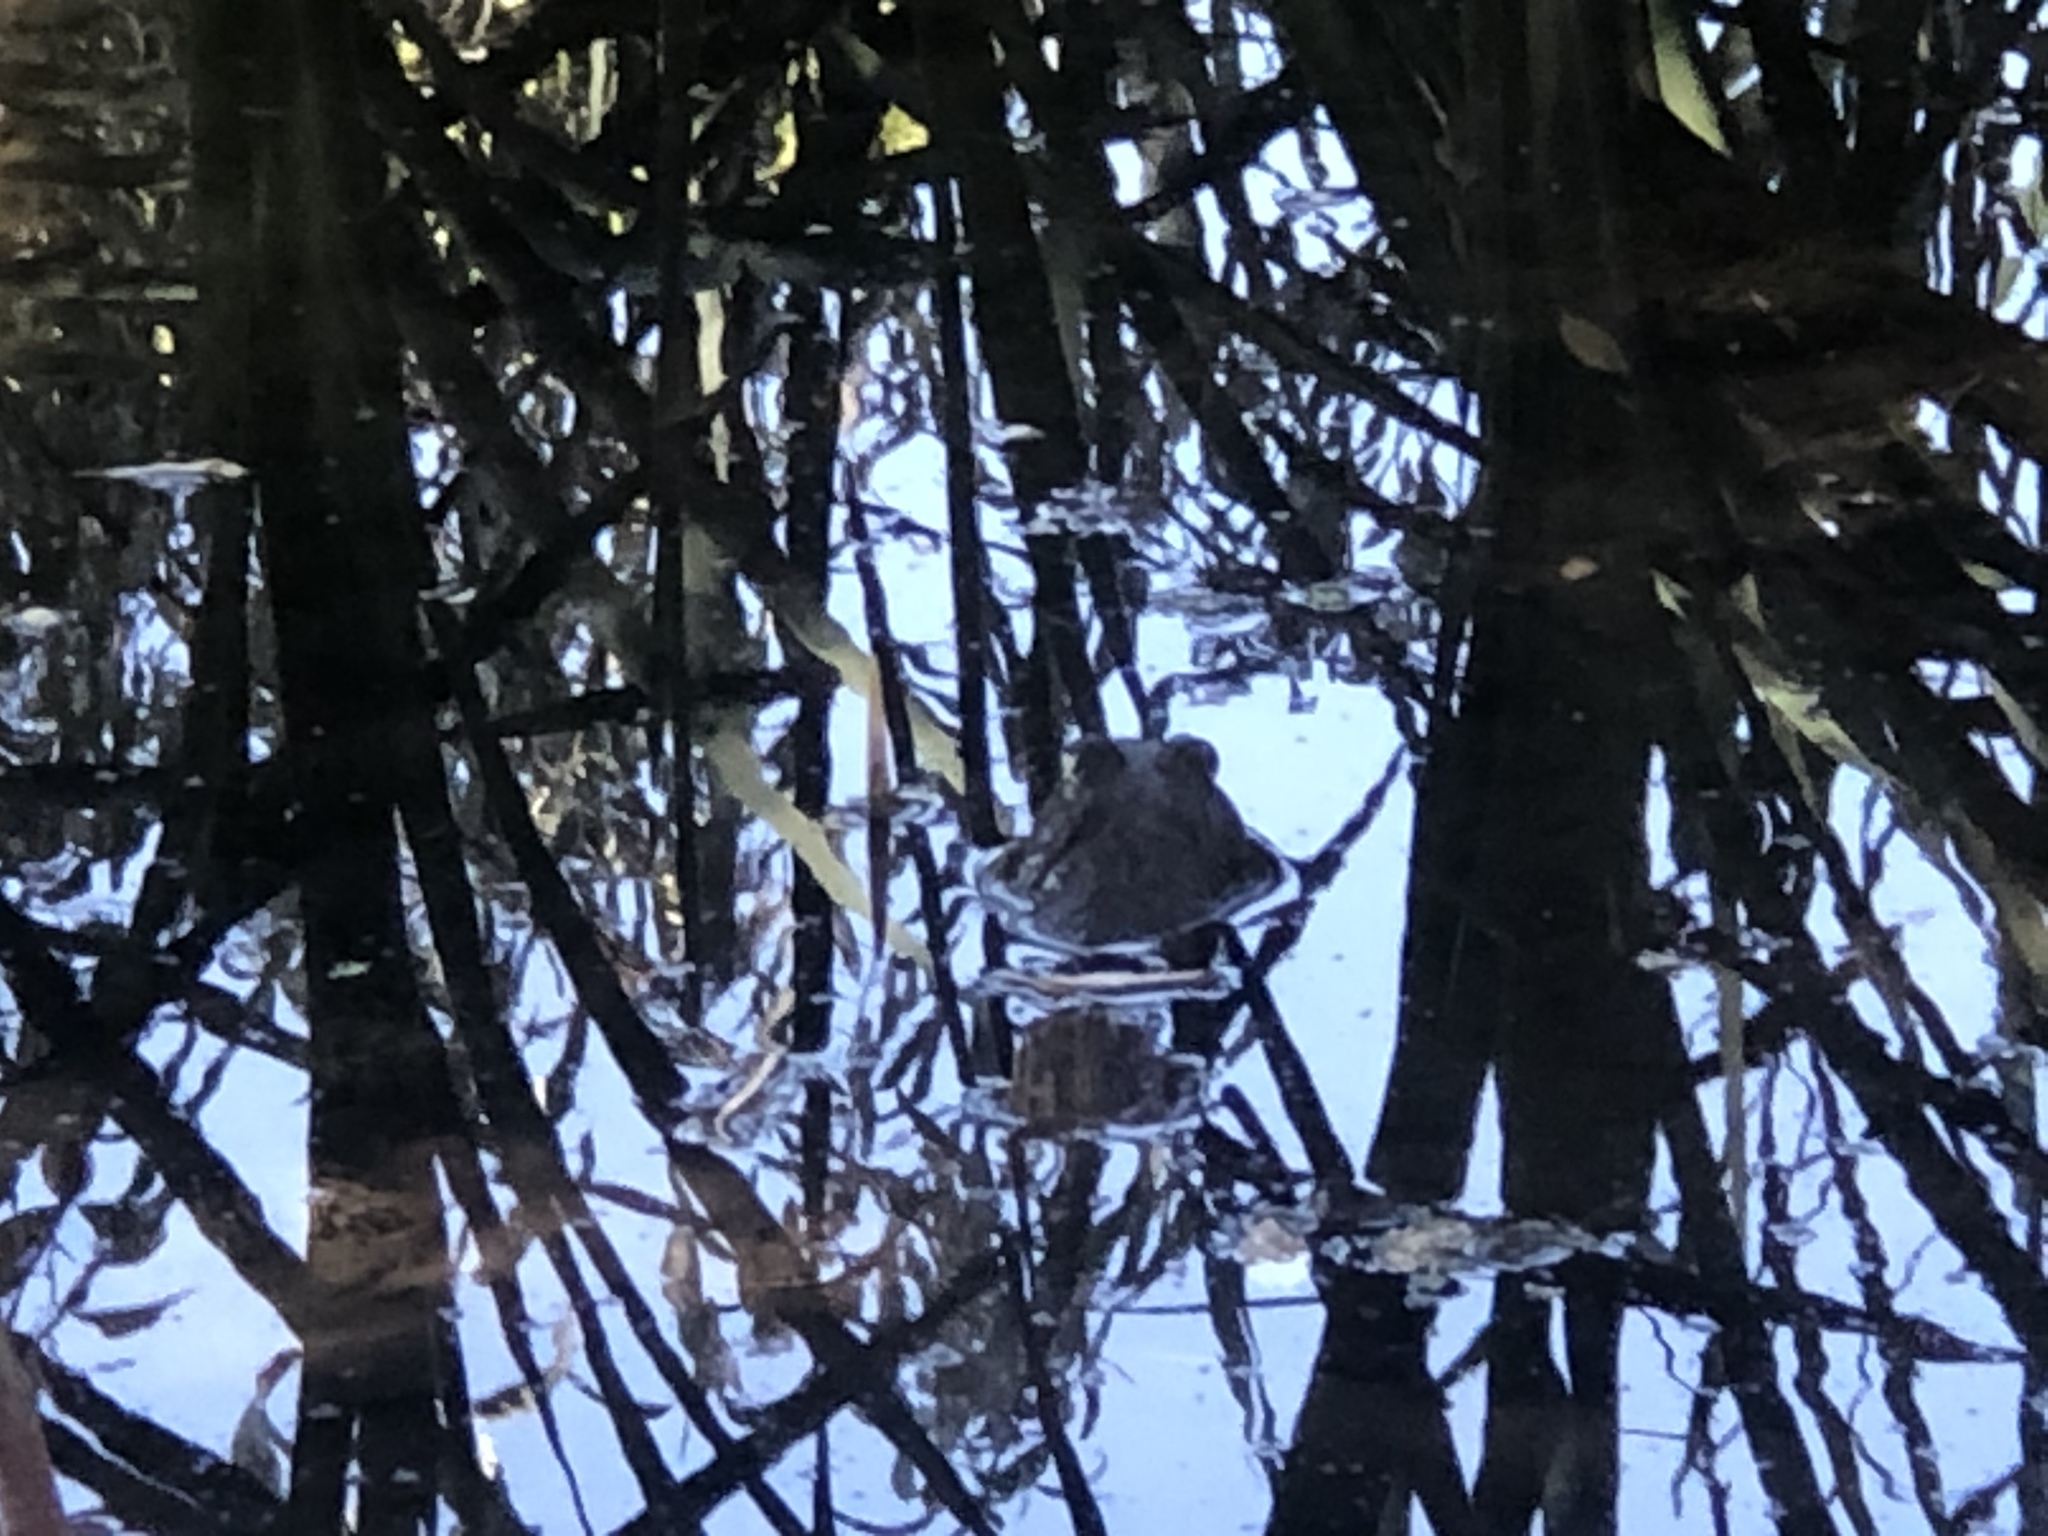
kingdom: Animalia
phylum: Chordata
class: Amphibia
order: Anura
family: Ranidae
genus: Lithobates
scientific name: Lithobates catesbeianus
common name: American bullfrog
